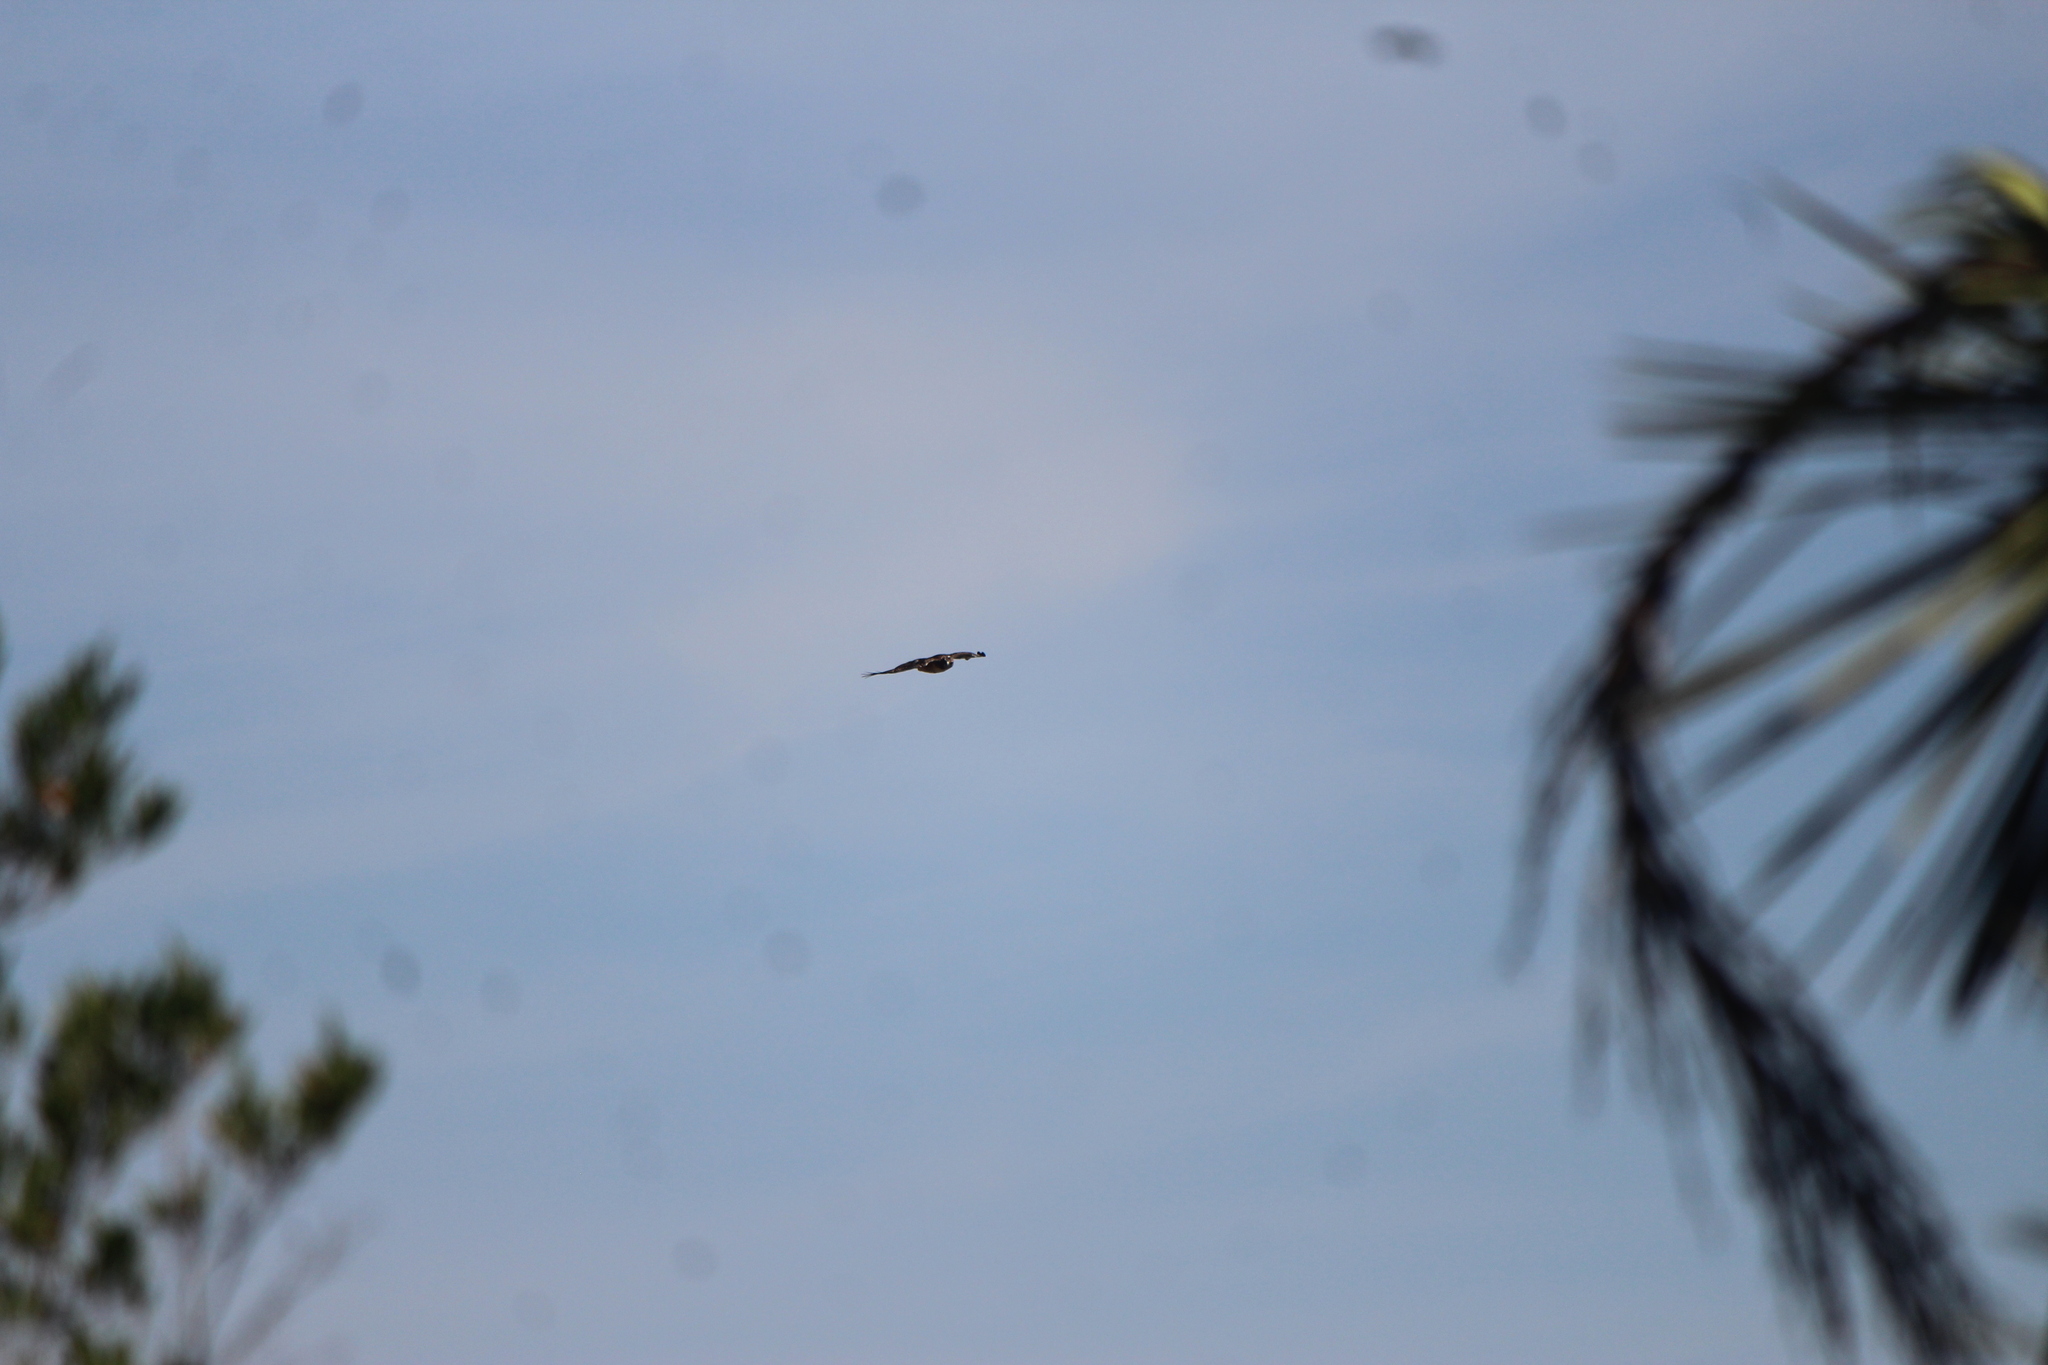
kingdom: Animalia
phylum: Chordata
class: Aves
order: Accipitriformes
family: Accipitridae
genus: Buteo
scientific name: Buteo jamaicensis
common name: Red-tailed hawk
